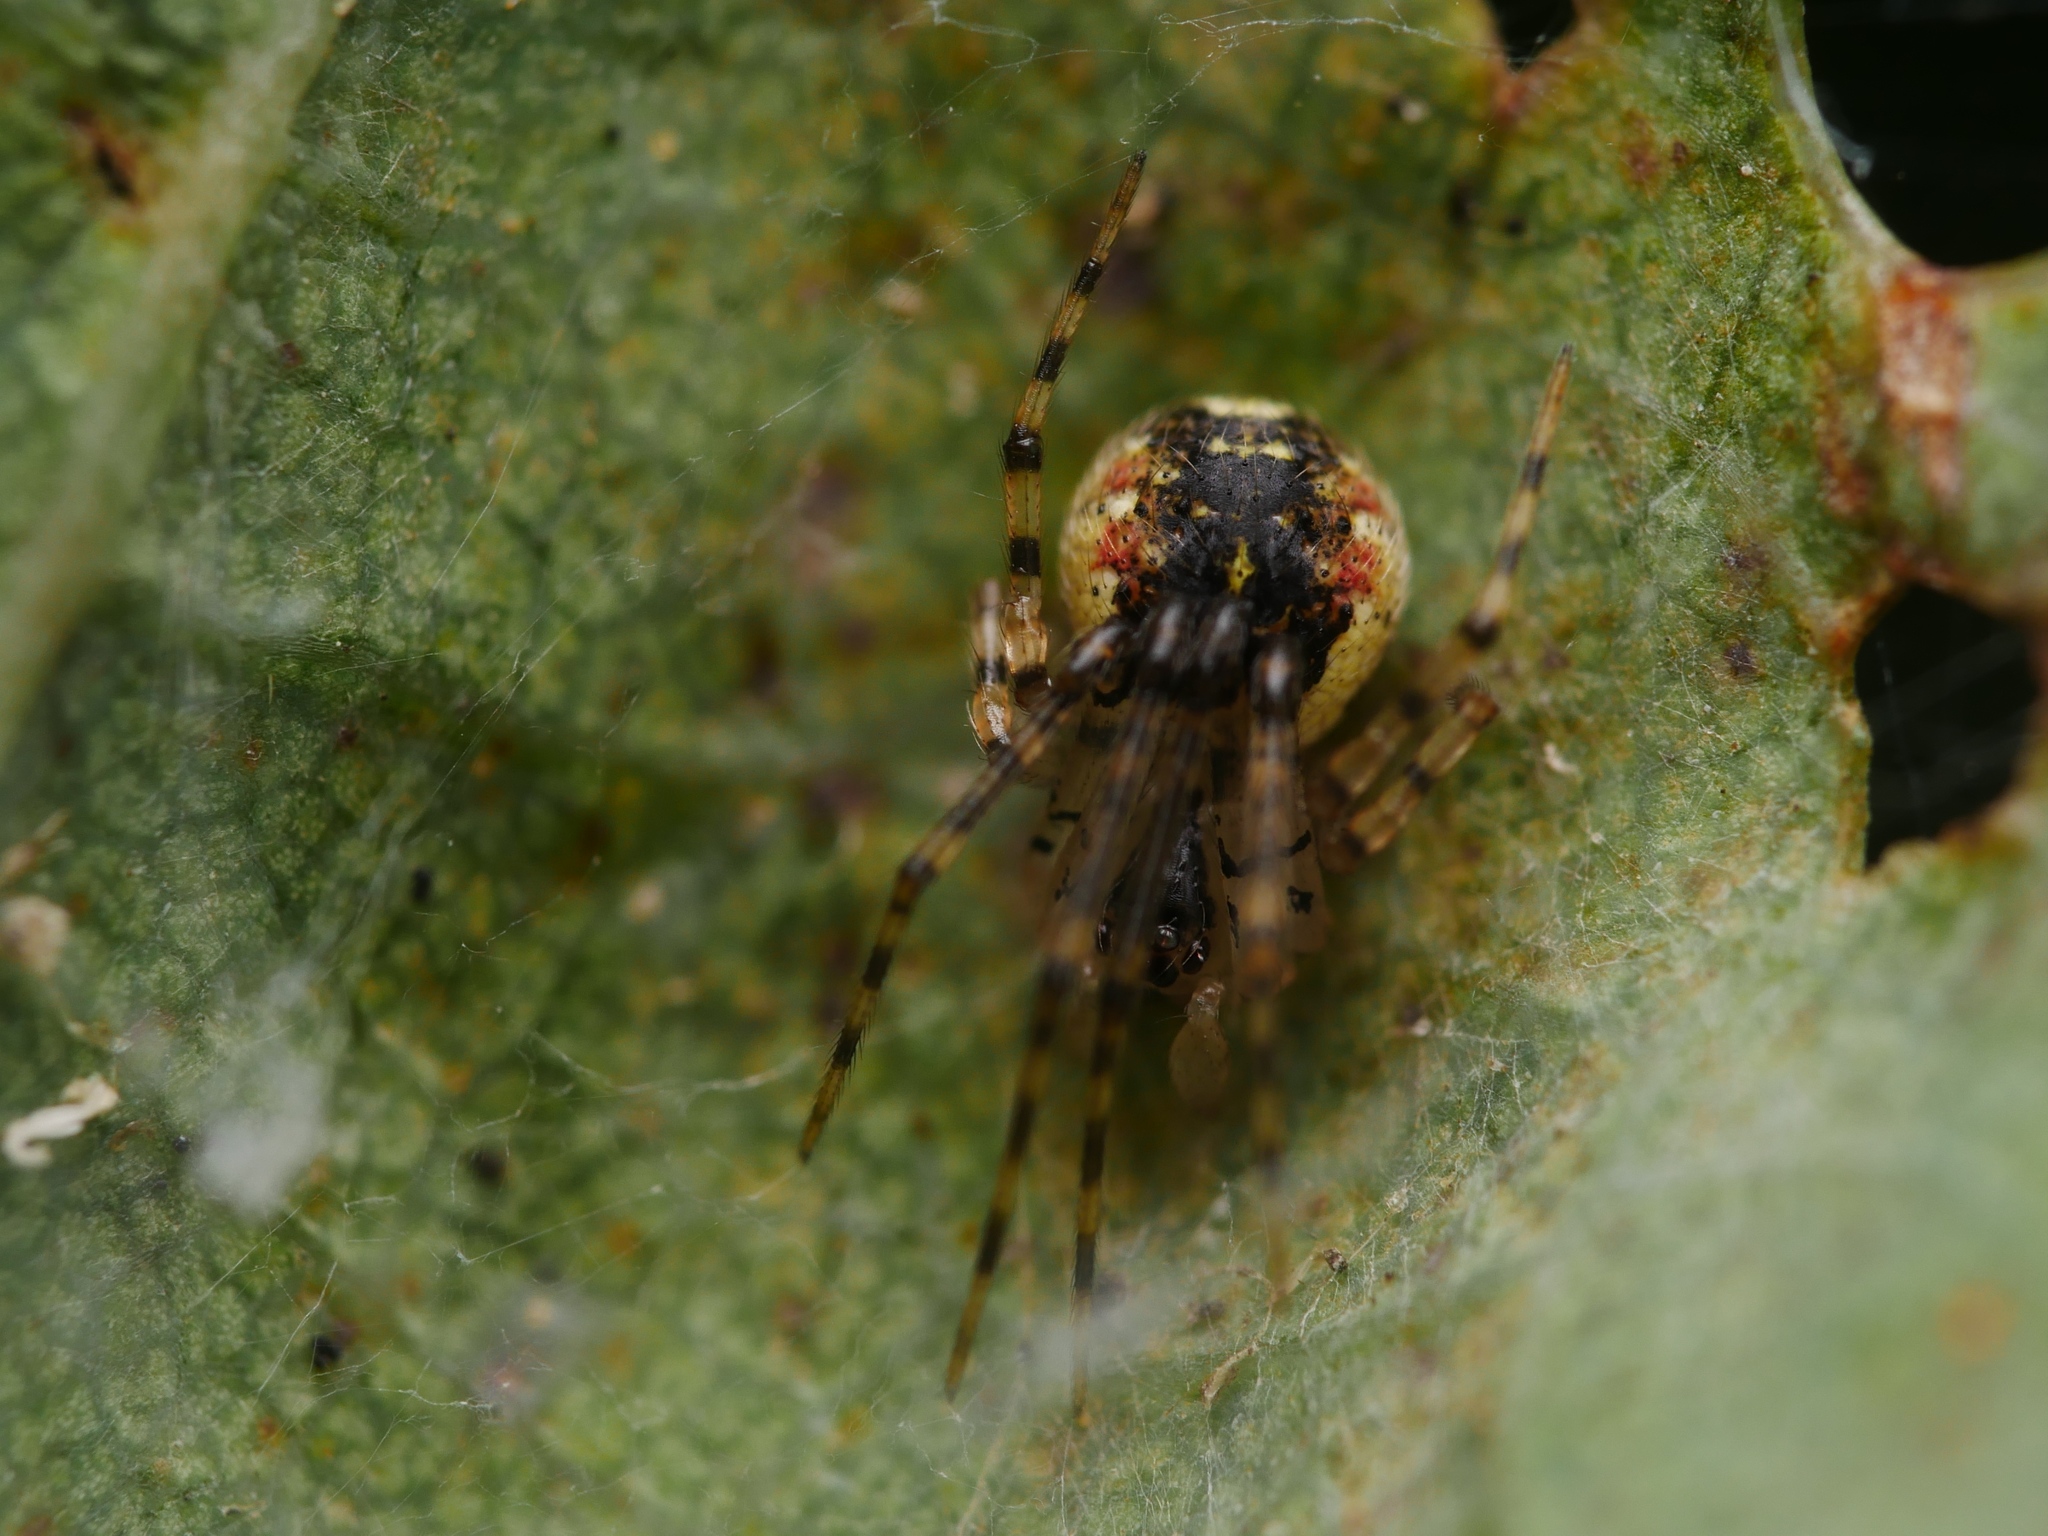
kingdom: Animalia
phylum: Arthropoda
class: Arachnida
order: Araneae
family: Theridiidae
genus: Platnickina
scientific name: Platnickina tincta
